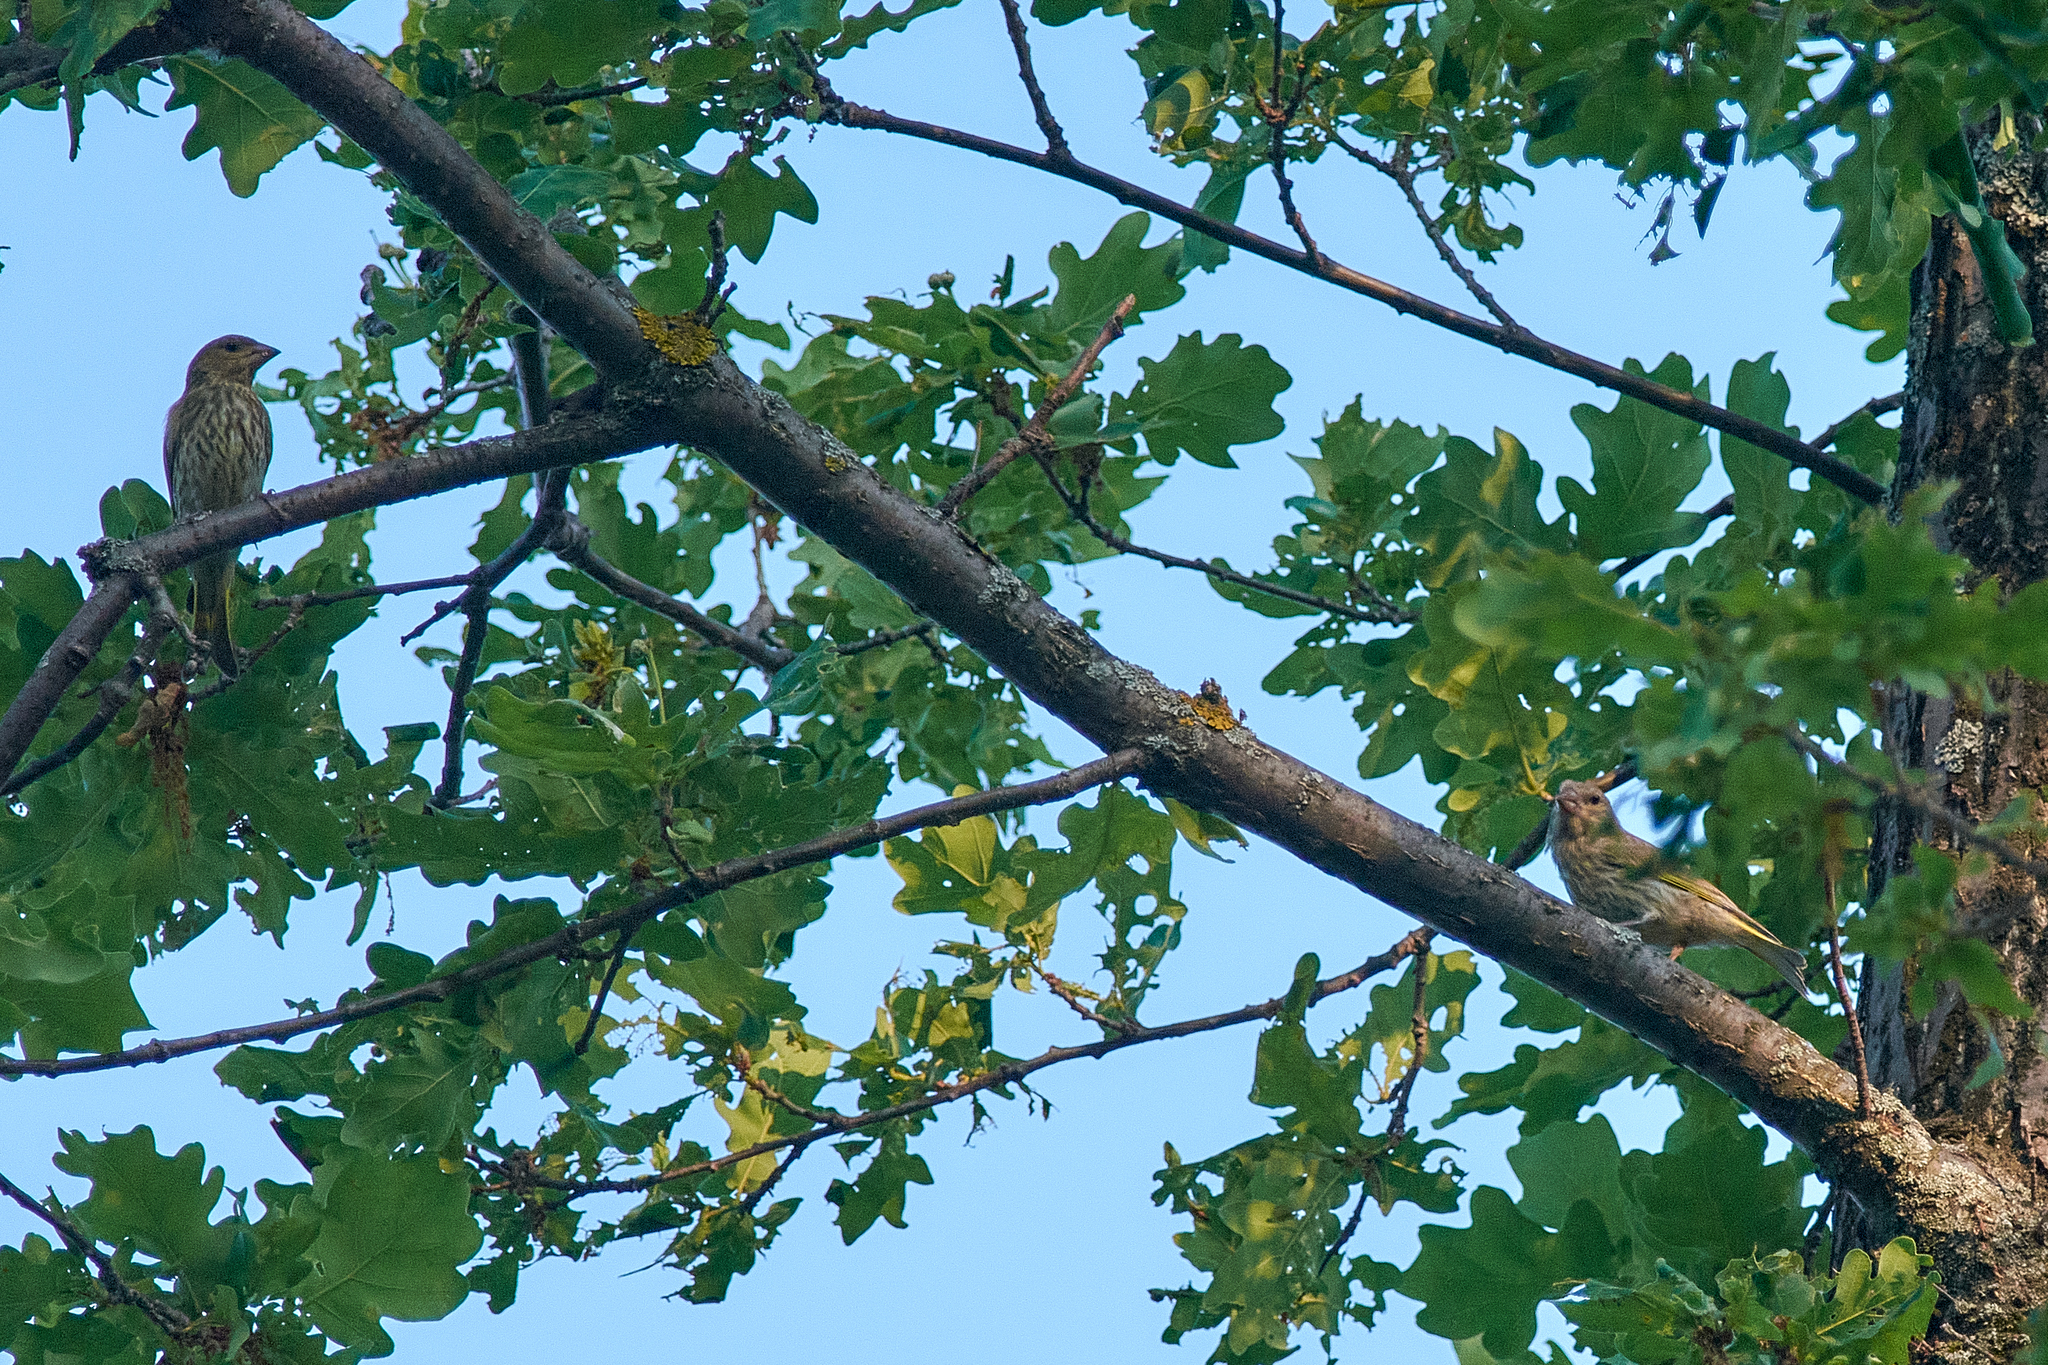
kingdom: Plantae
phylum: Tracheophyta
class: Liliopsida
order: Poales
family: Poaceae
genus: Chloris
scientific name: Chloris chloris
